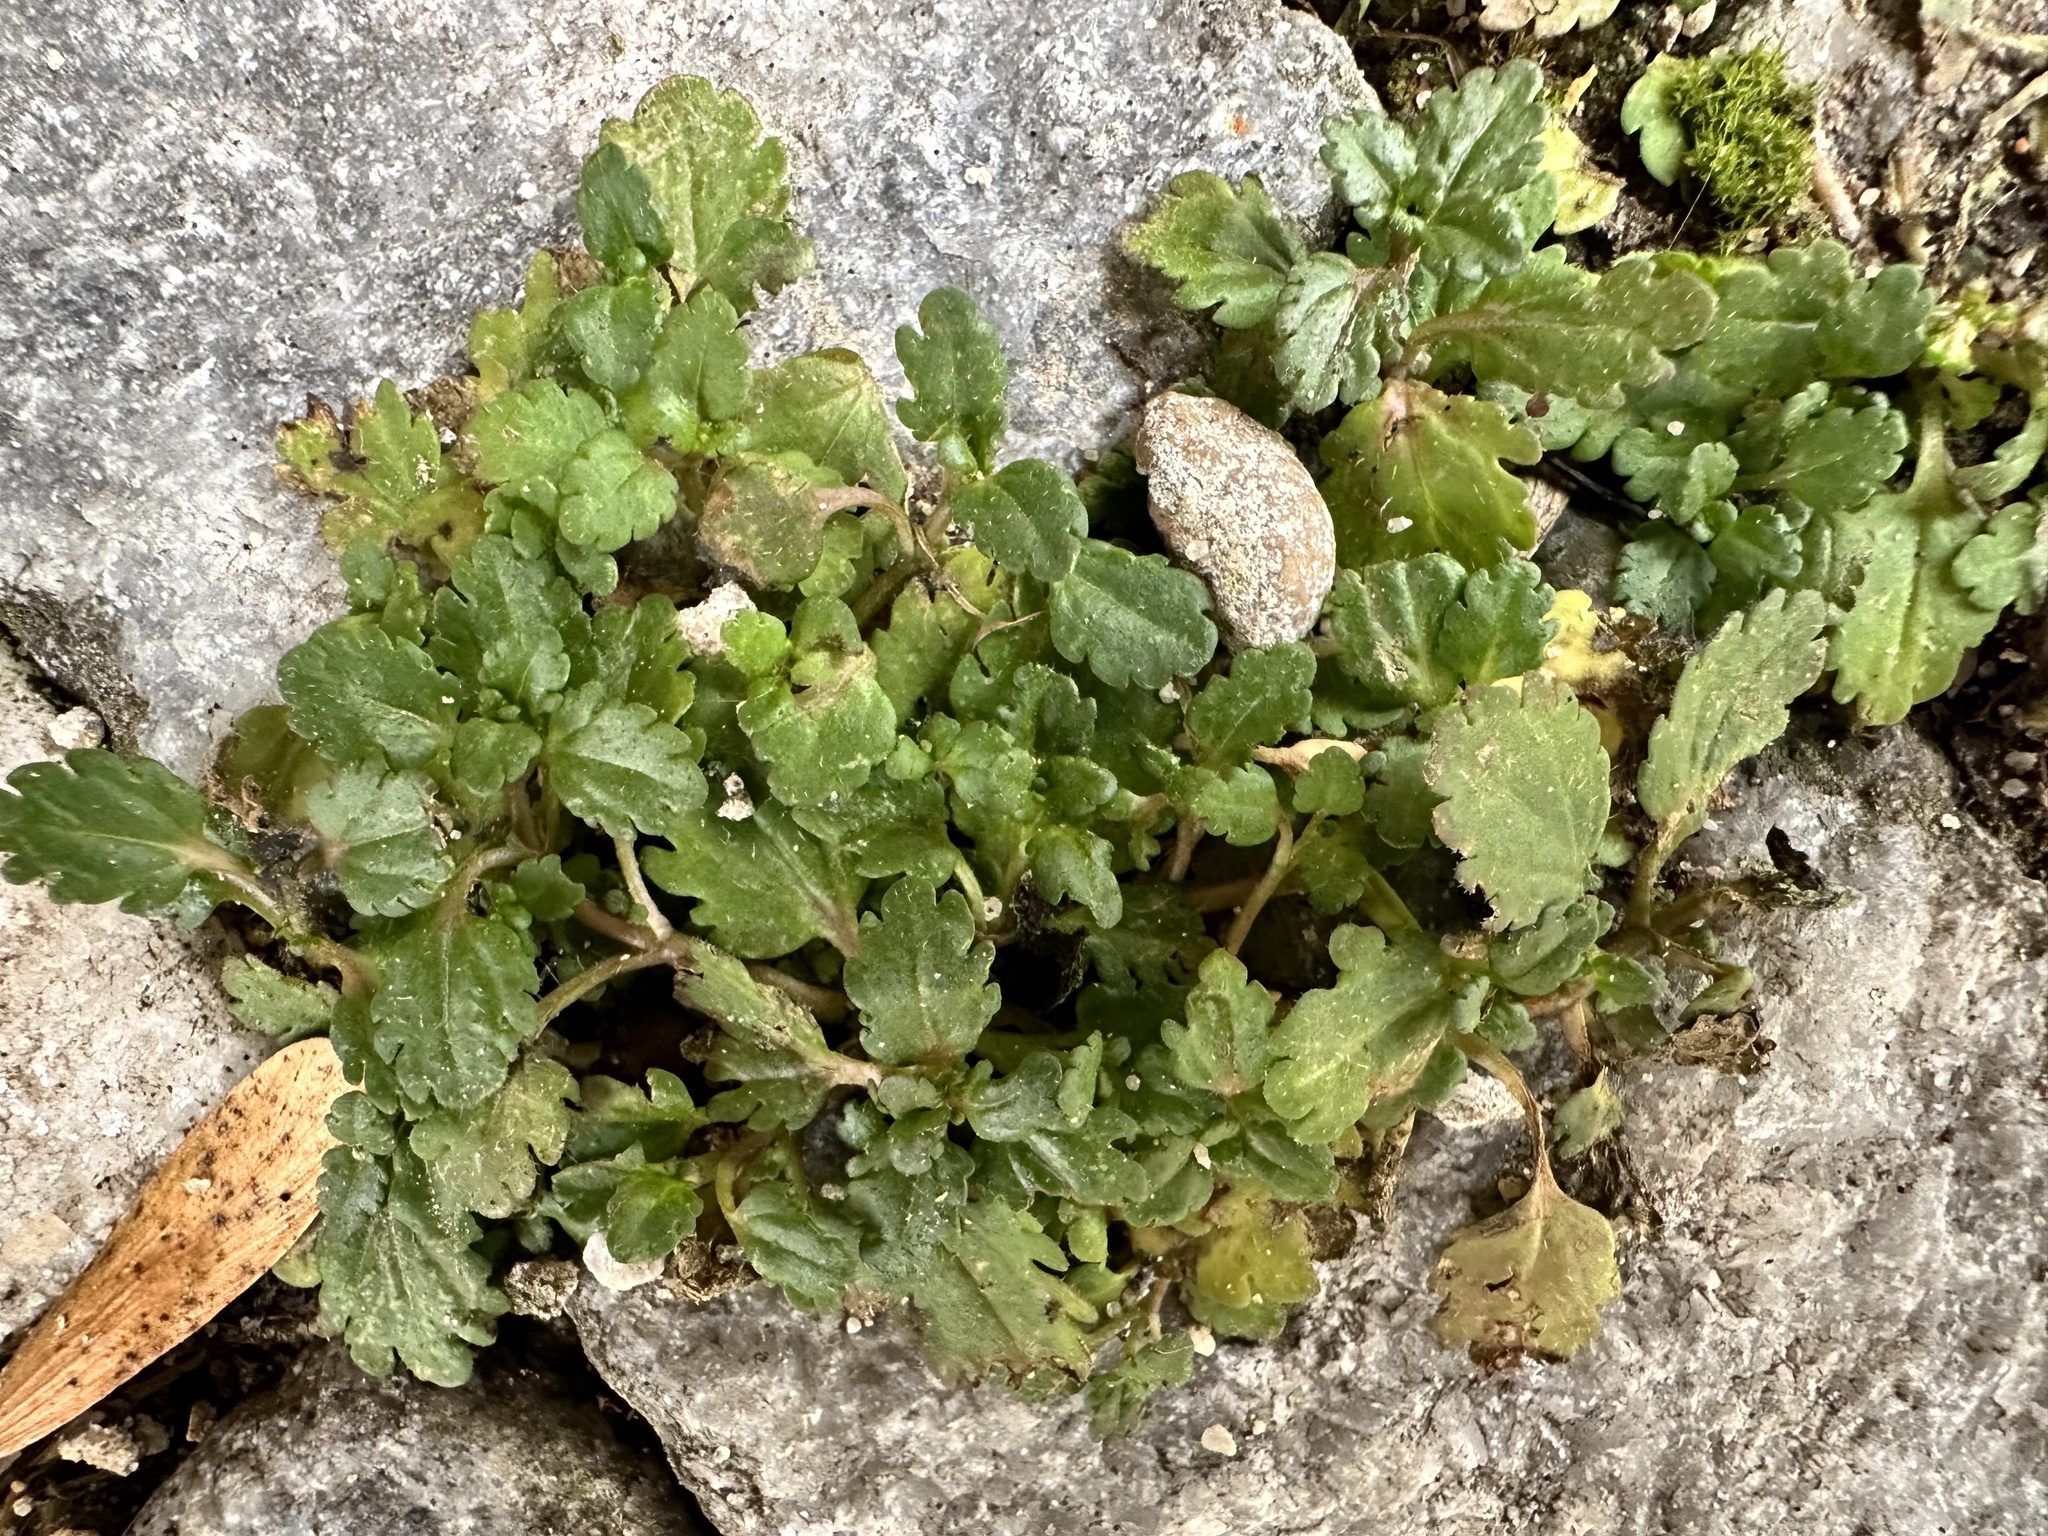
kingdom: Plantae
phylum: Tracheophyta
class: Magnoliopsida
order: Lamiales
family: Plantaginaceae
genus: Veronica
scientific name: Veronica persica
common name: Common field-speedwell
